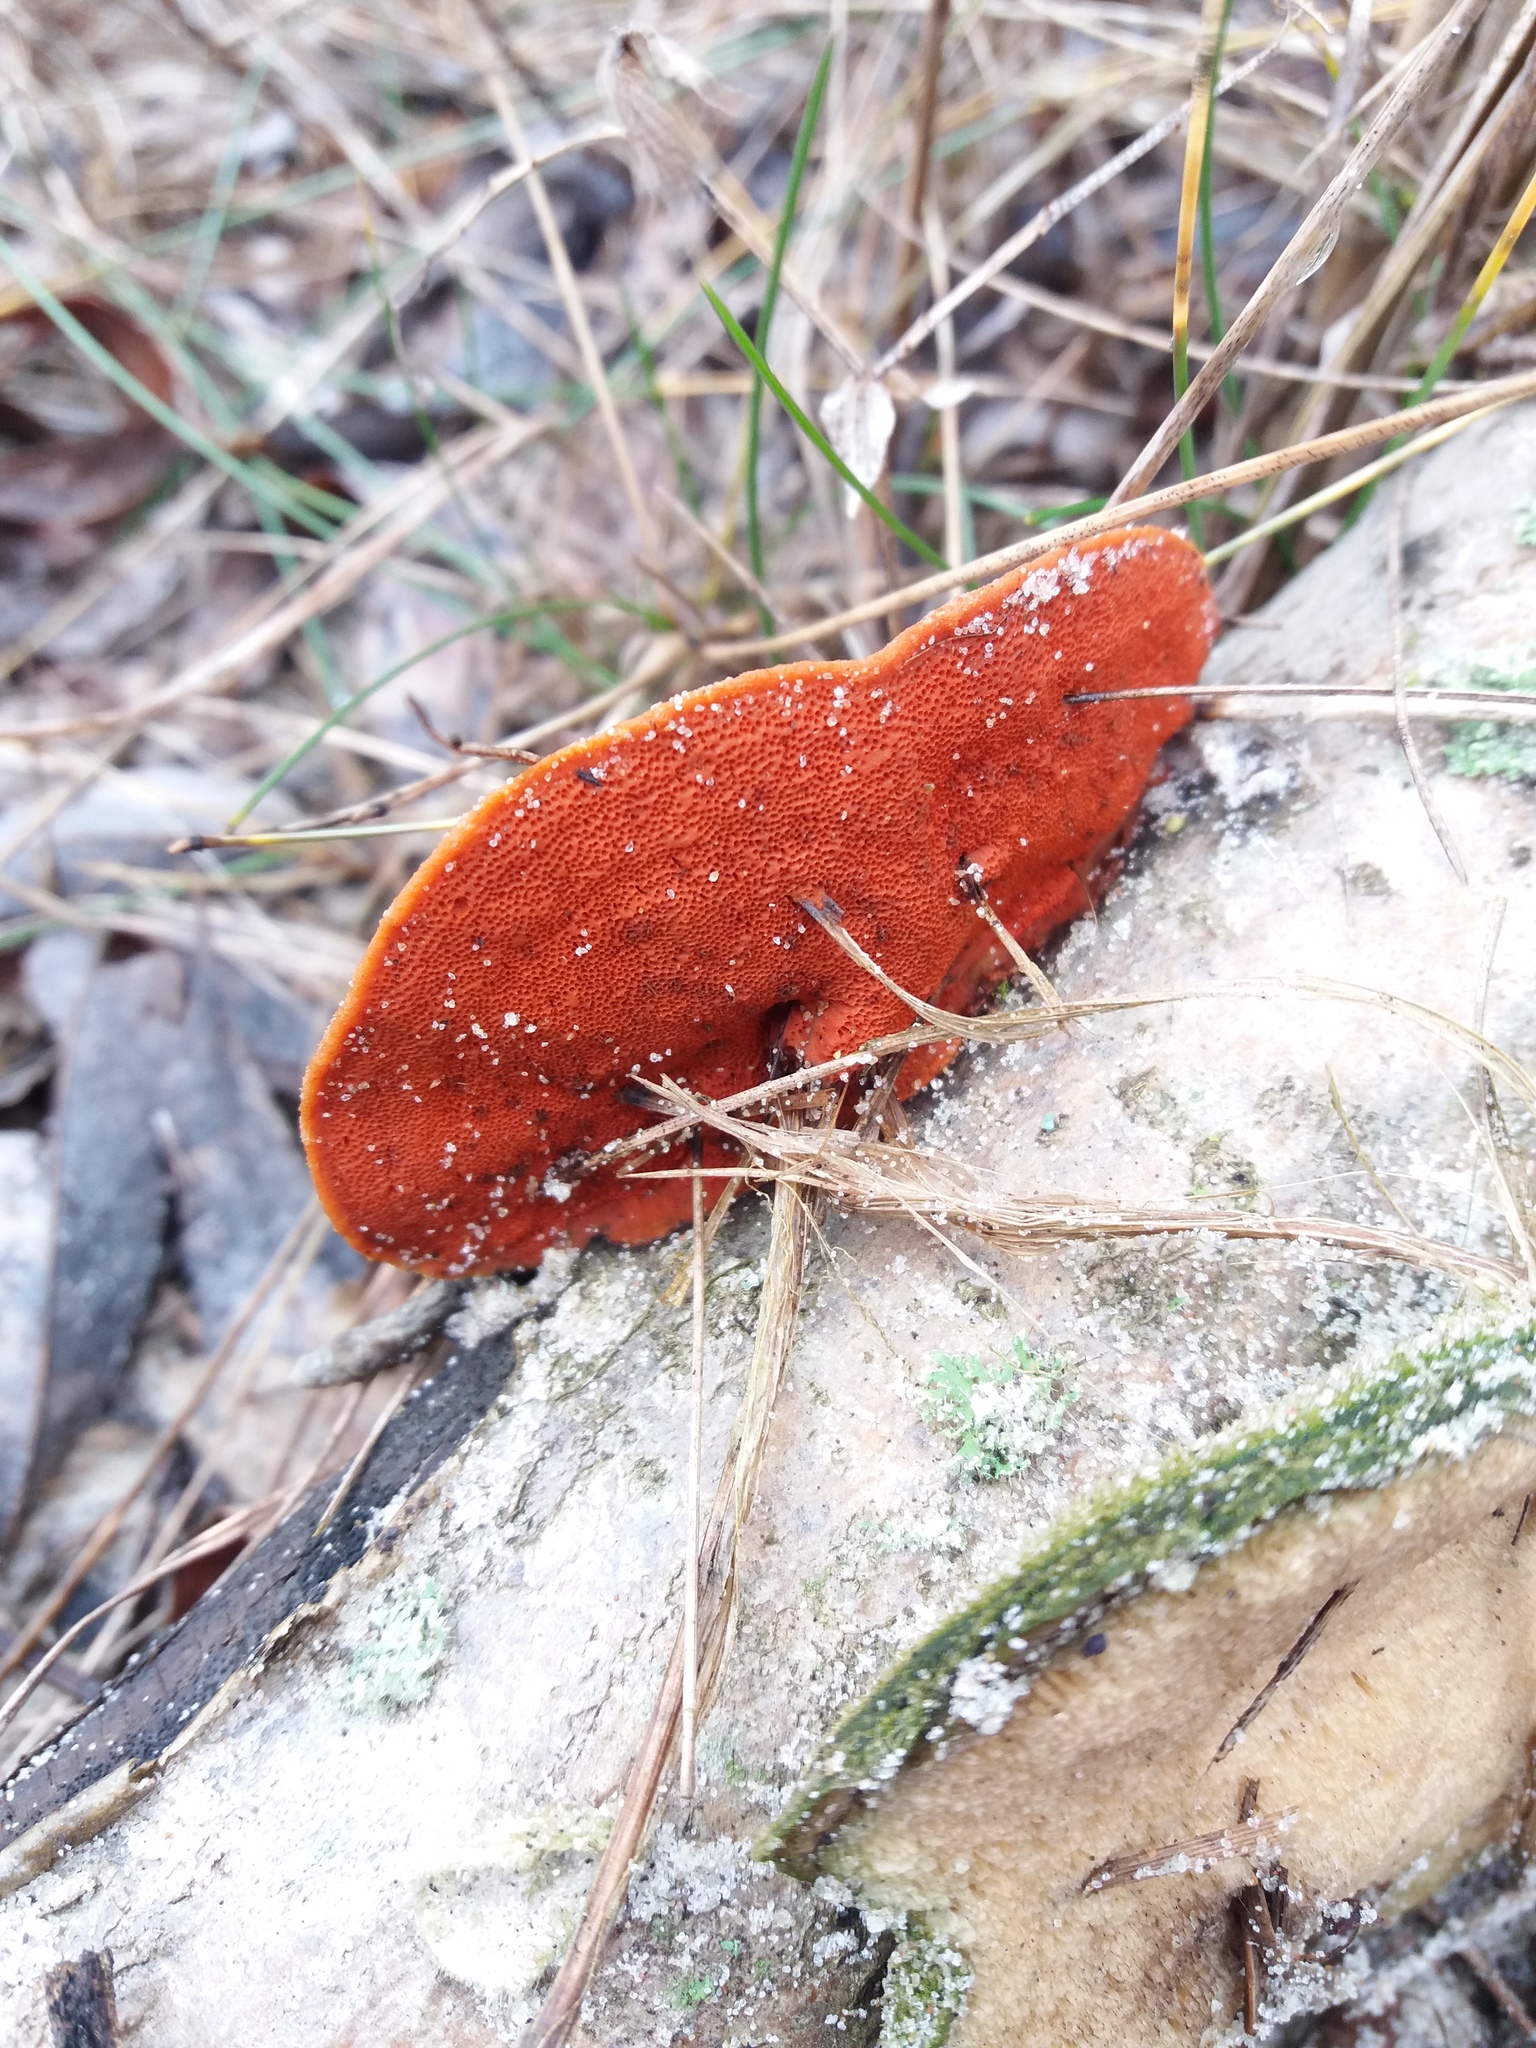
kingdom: Fungi
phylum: Basidiomycota
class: Agaricomycetes
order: Polyporales
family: Polyporaceae
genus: Trametes
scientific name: Trametes cinnabarina
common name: Northern cinnabar polypore
